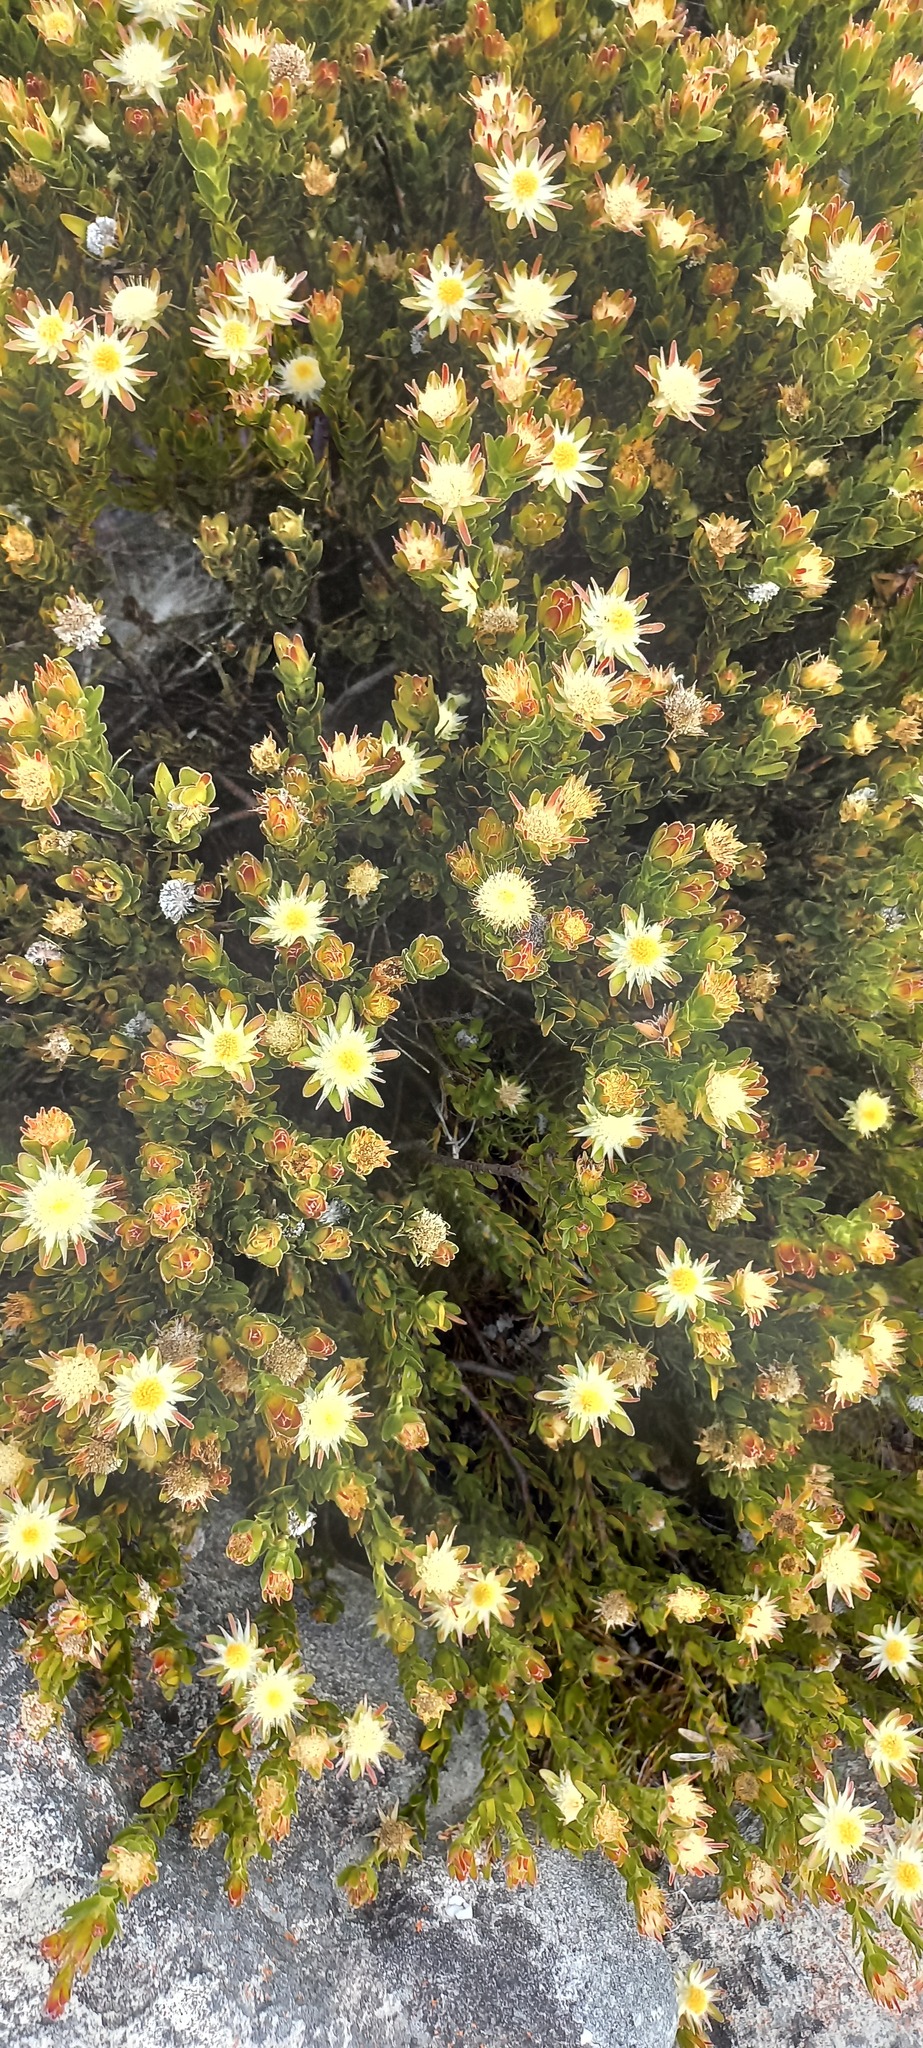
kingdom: Plantae
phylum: Tracheophyta
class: Magnoliopsida
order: Proteales
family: Proteaceae
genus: Diastella
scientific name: Diastella thymelaeoides
